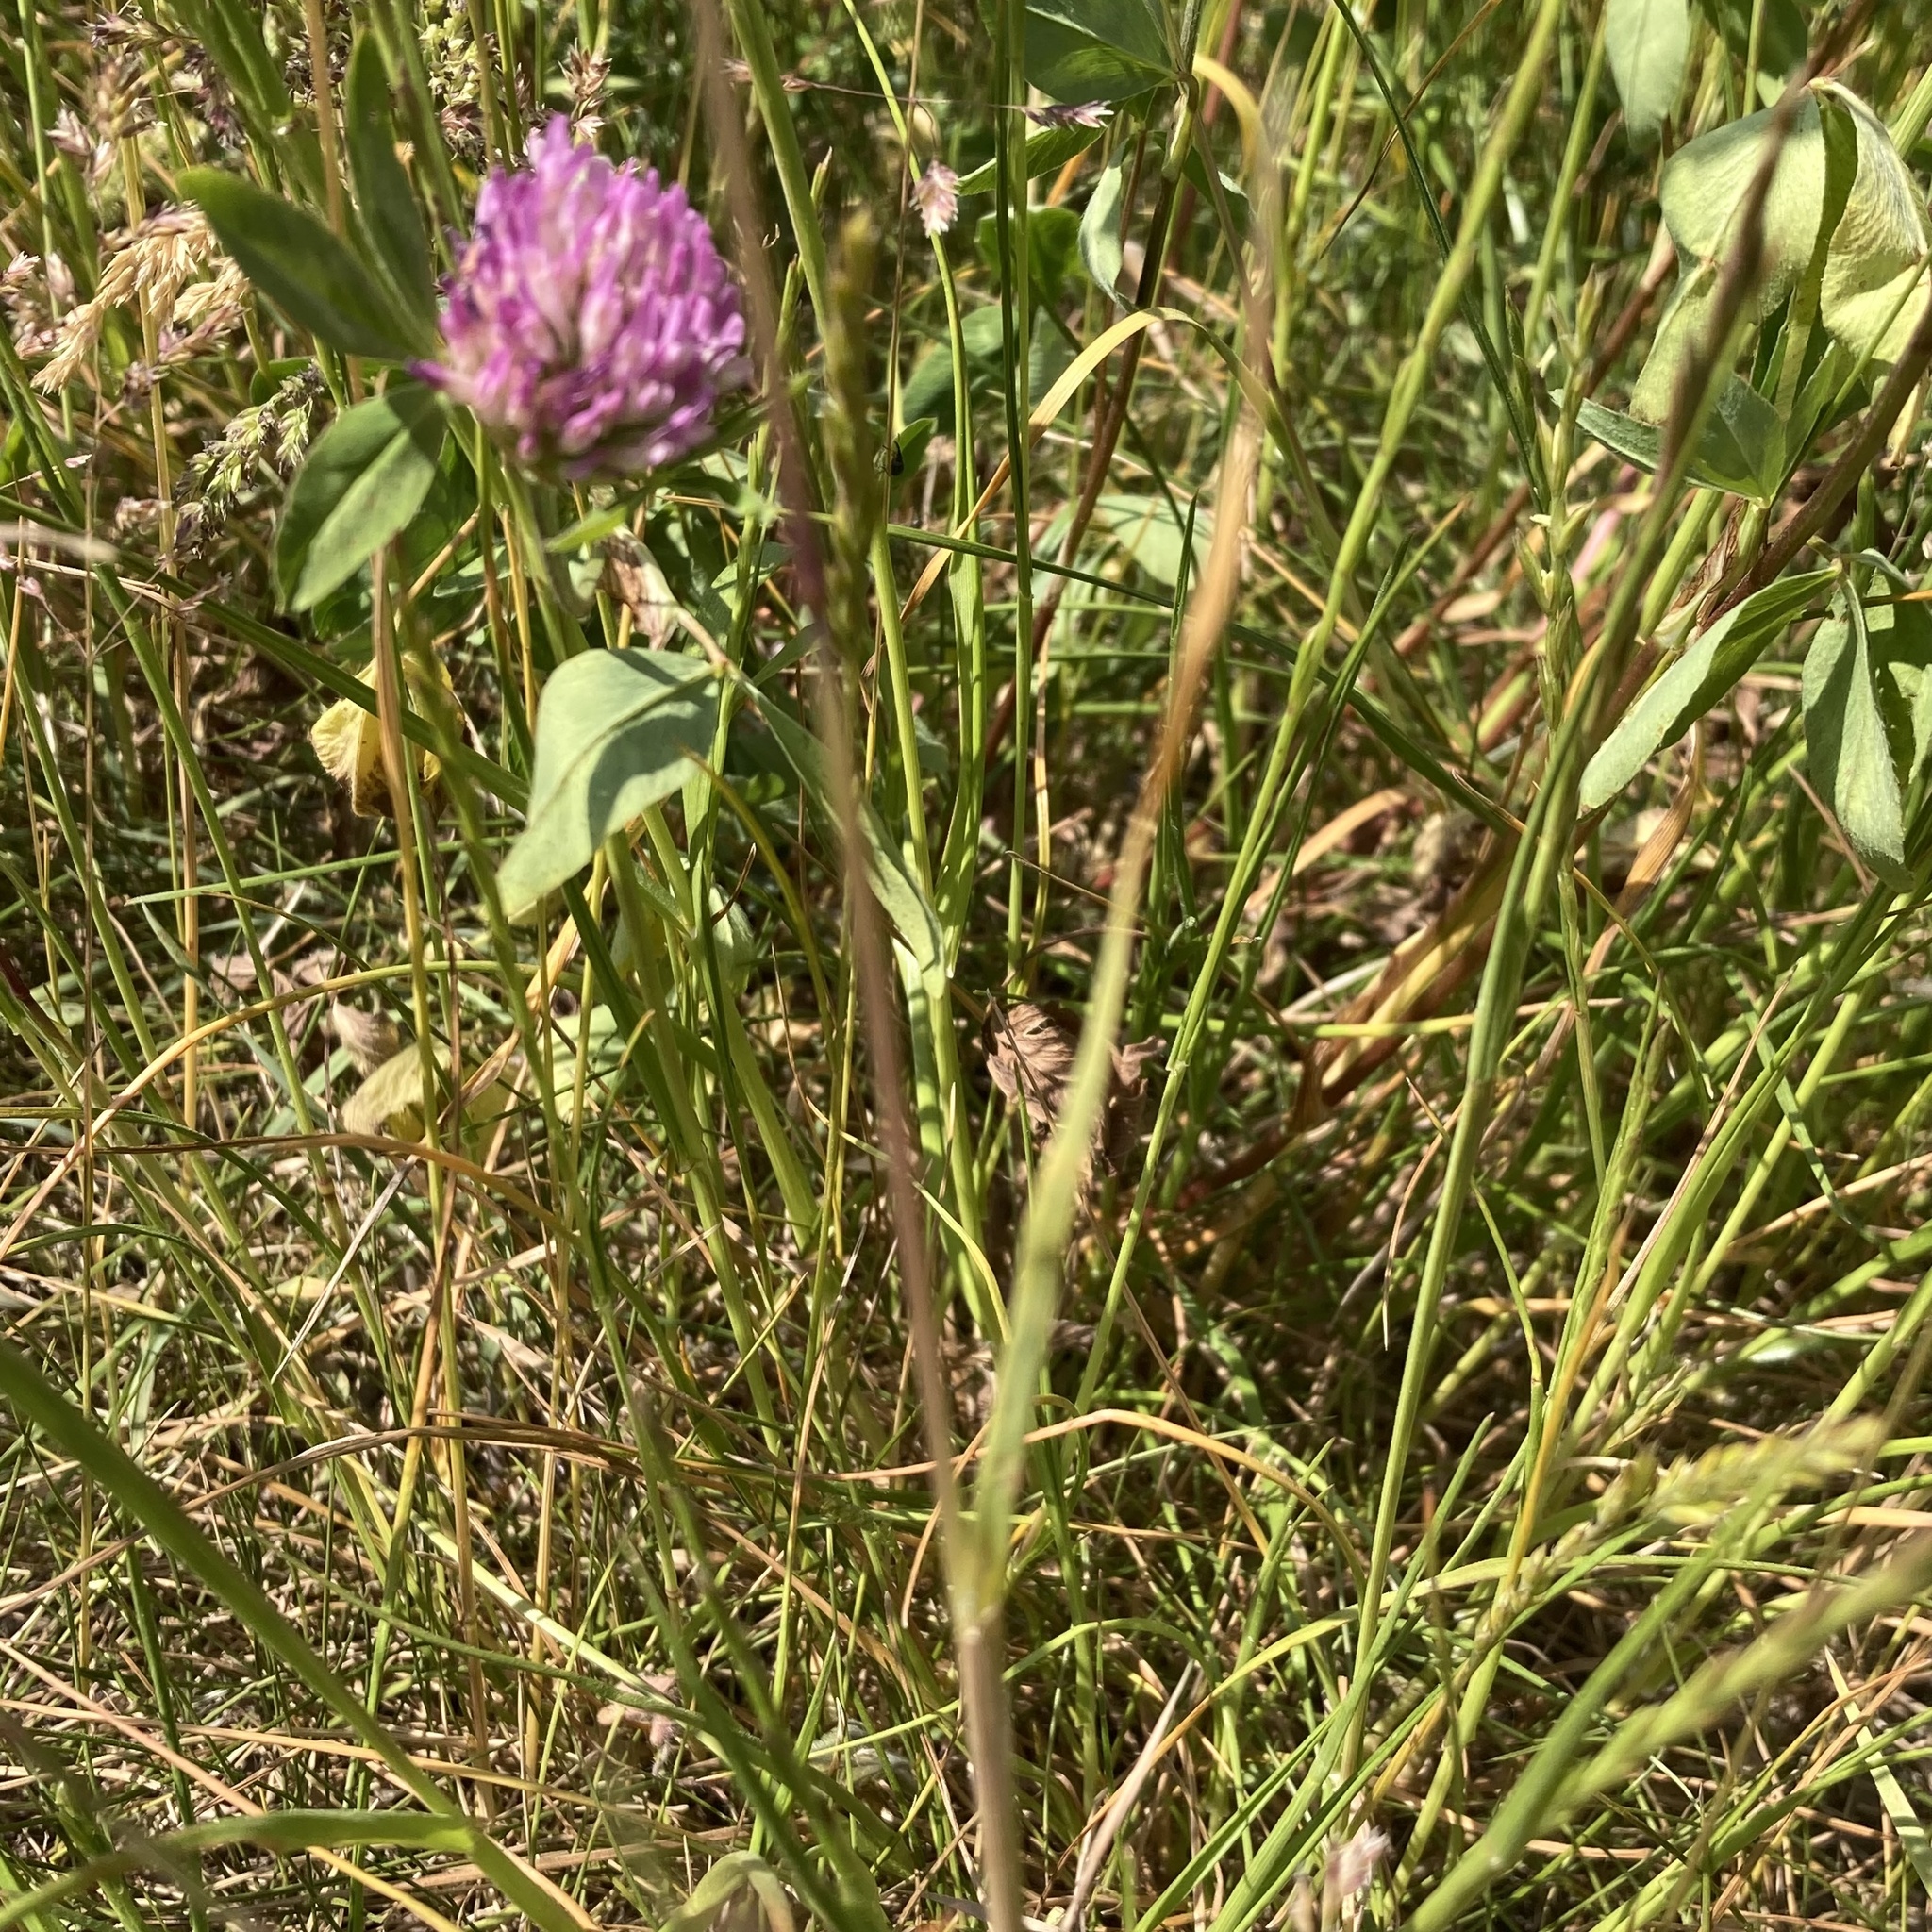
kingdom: Plantae
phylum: Tracheophyta
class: Magnoliopsida
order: Fabales
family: Fabaceae
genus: Trifolium
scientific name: Trifolium pratense
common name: Red clover
